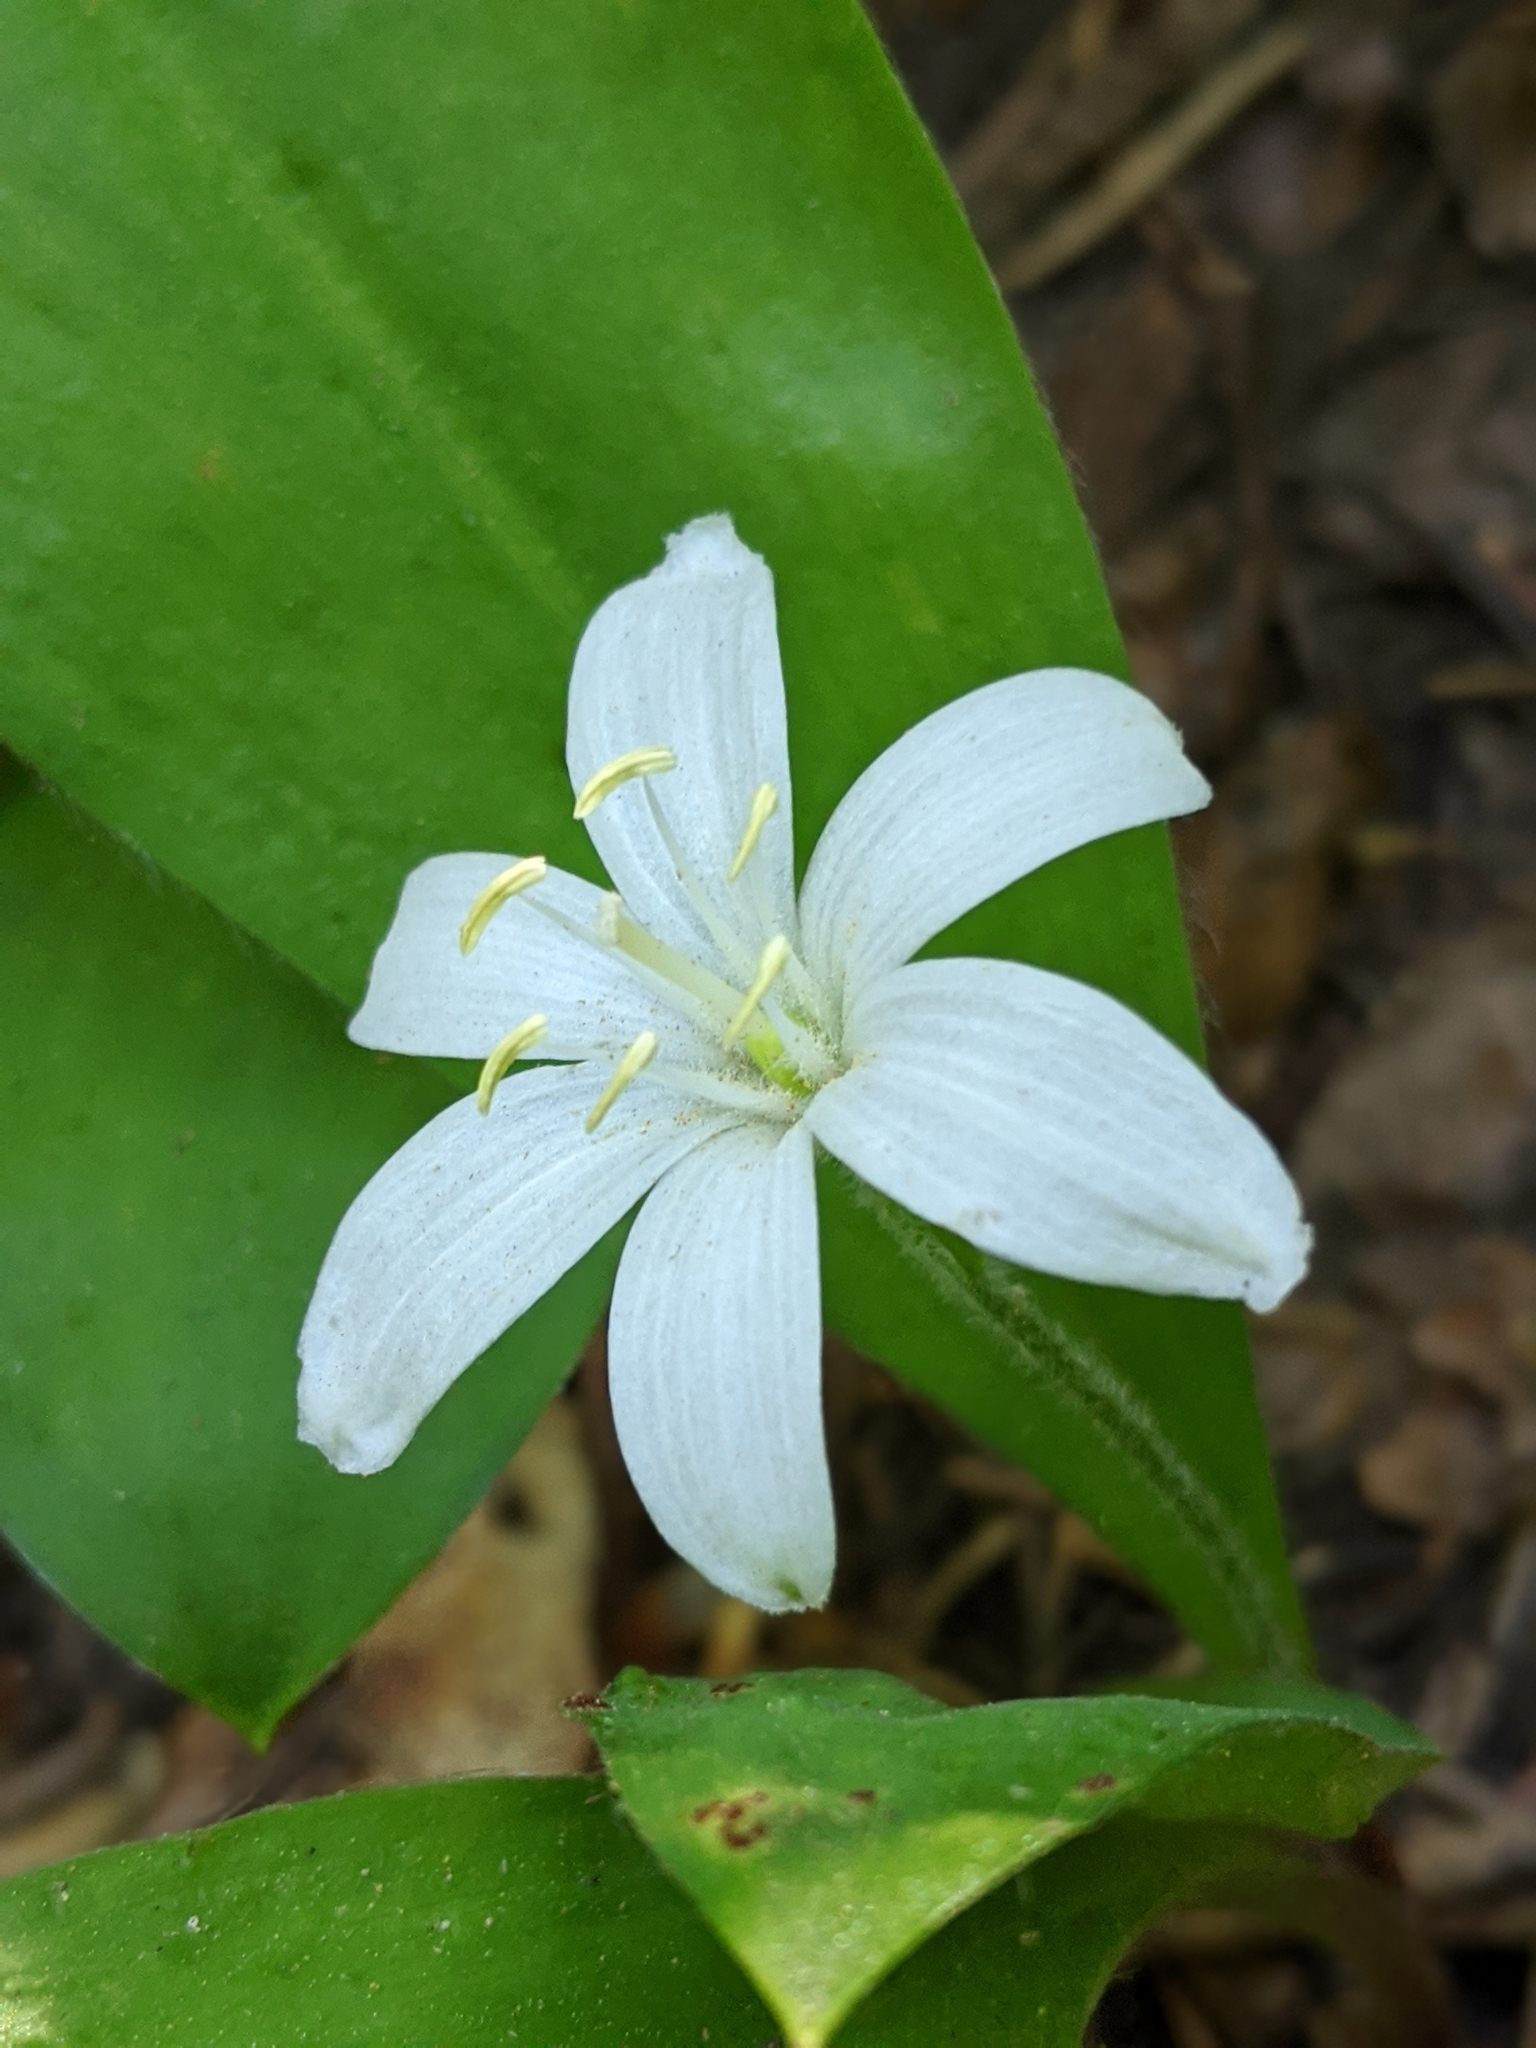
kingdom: Plantae
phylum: Tracheophyta
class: Liliopsida
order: Liliales
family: Liliaceae
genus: Clintonia
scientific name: Clintonia uniflora
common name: Queen's cup
